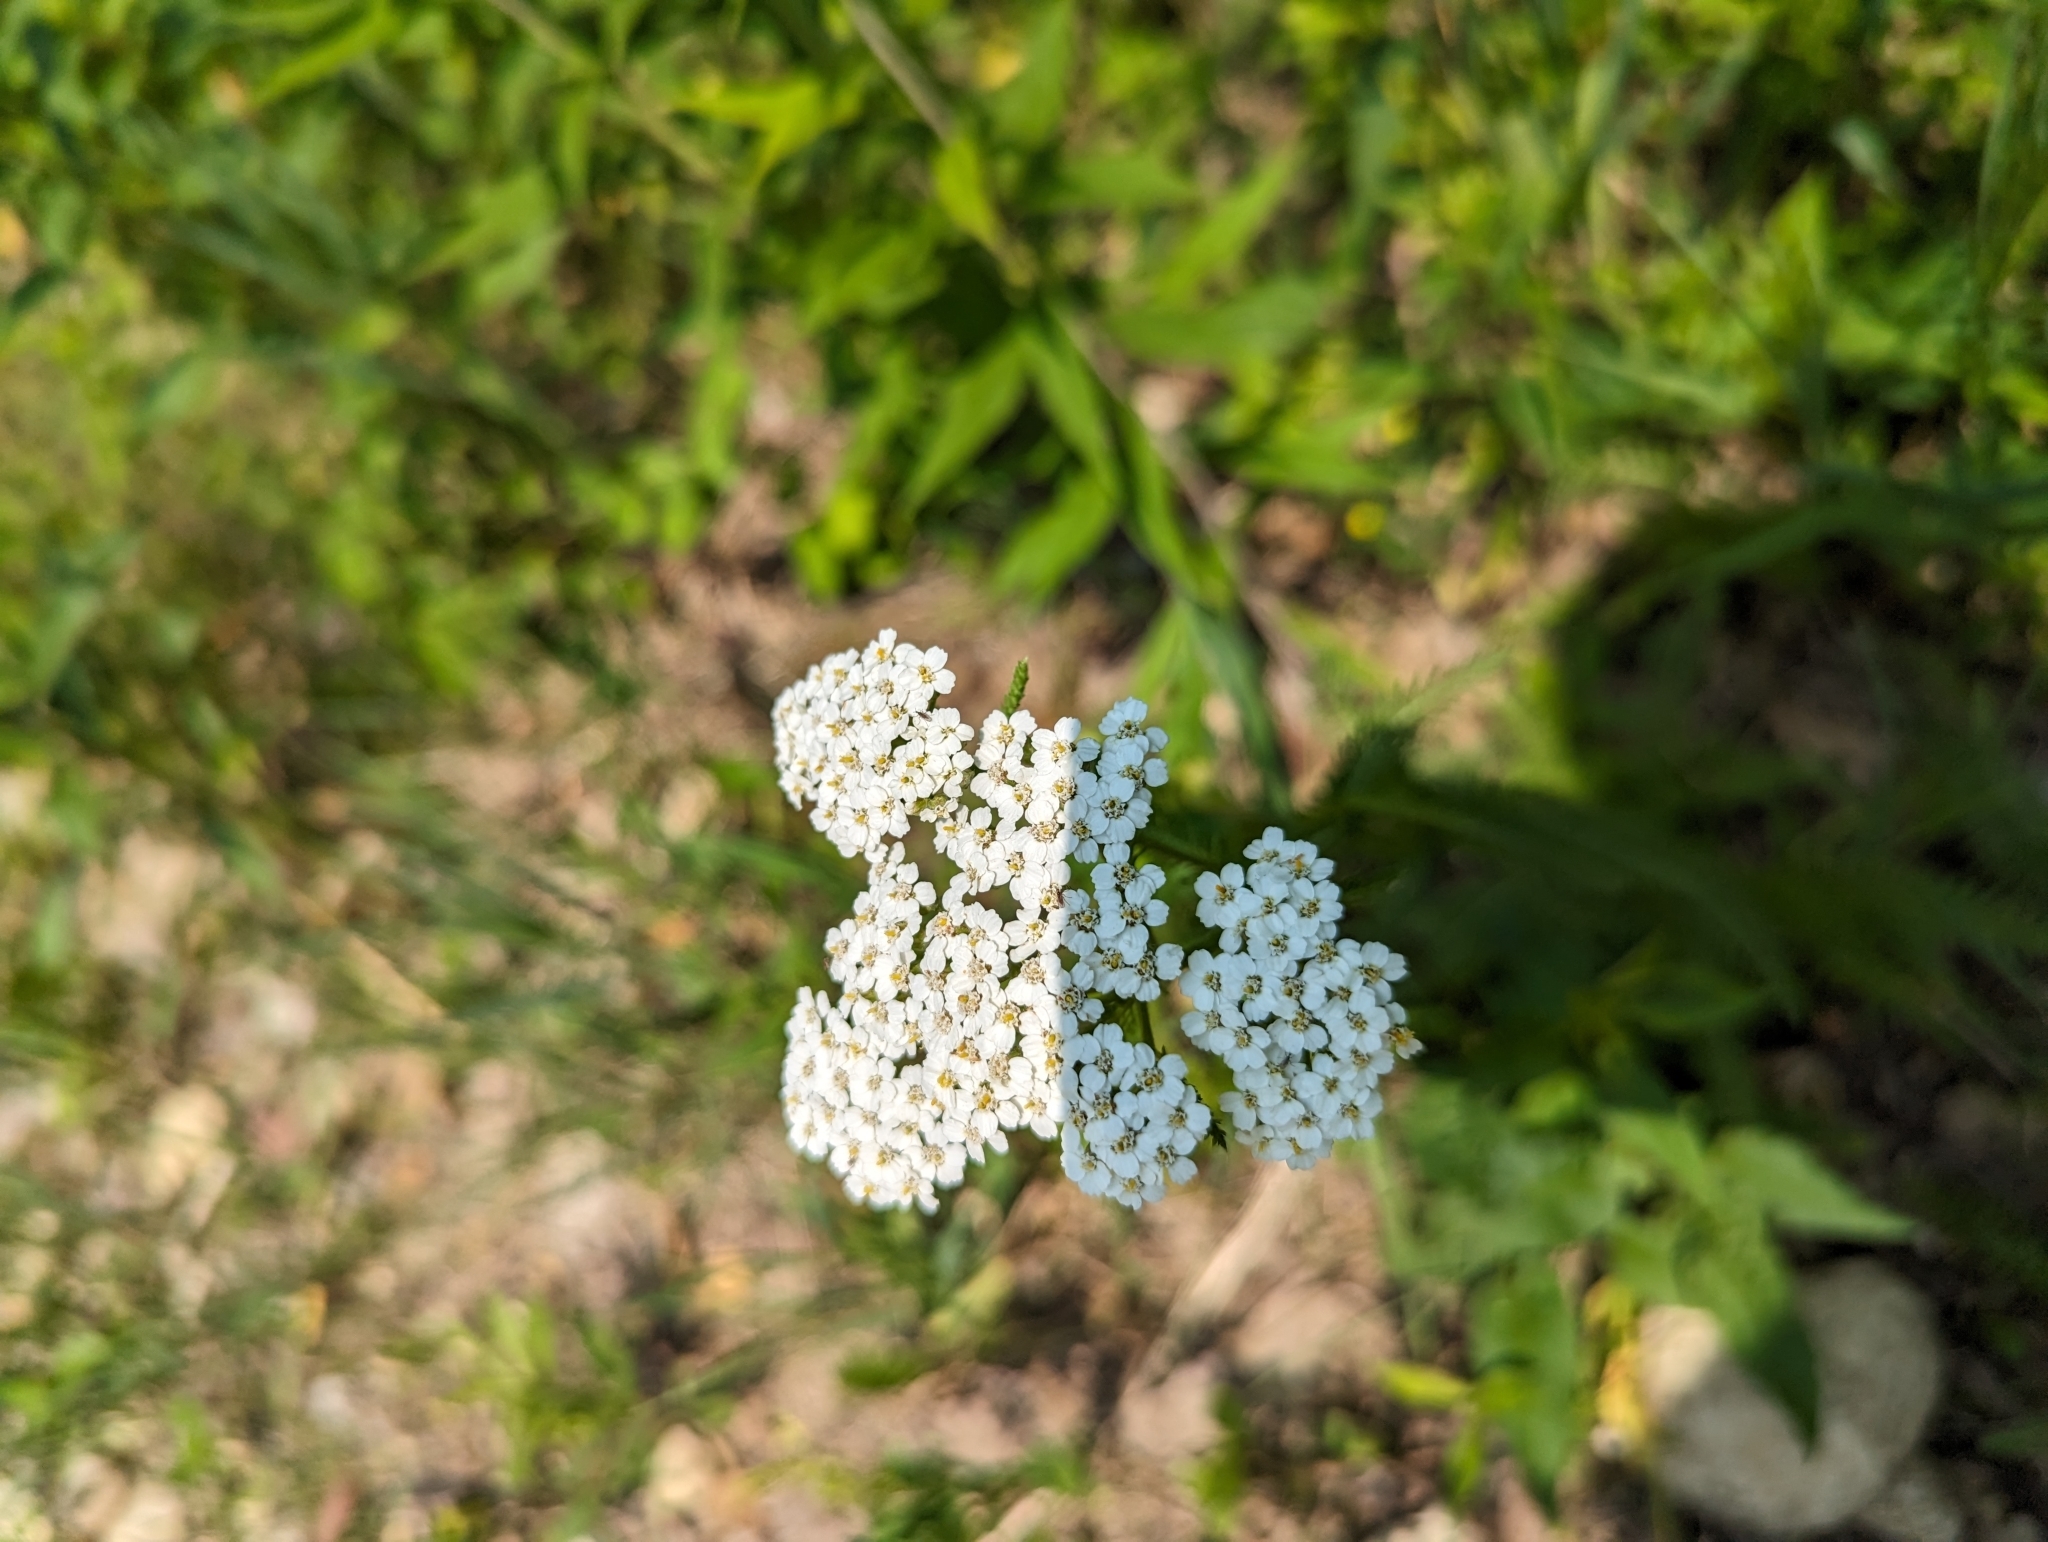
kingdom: Plantae
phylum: Tracheophyta
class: Magnoliopsida
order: Asterales
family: Asteraceae
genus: Achillea
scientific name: Achillea millefolium
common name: Yarrow
